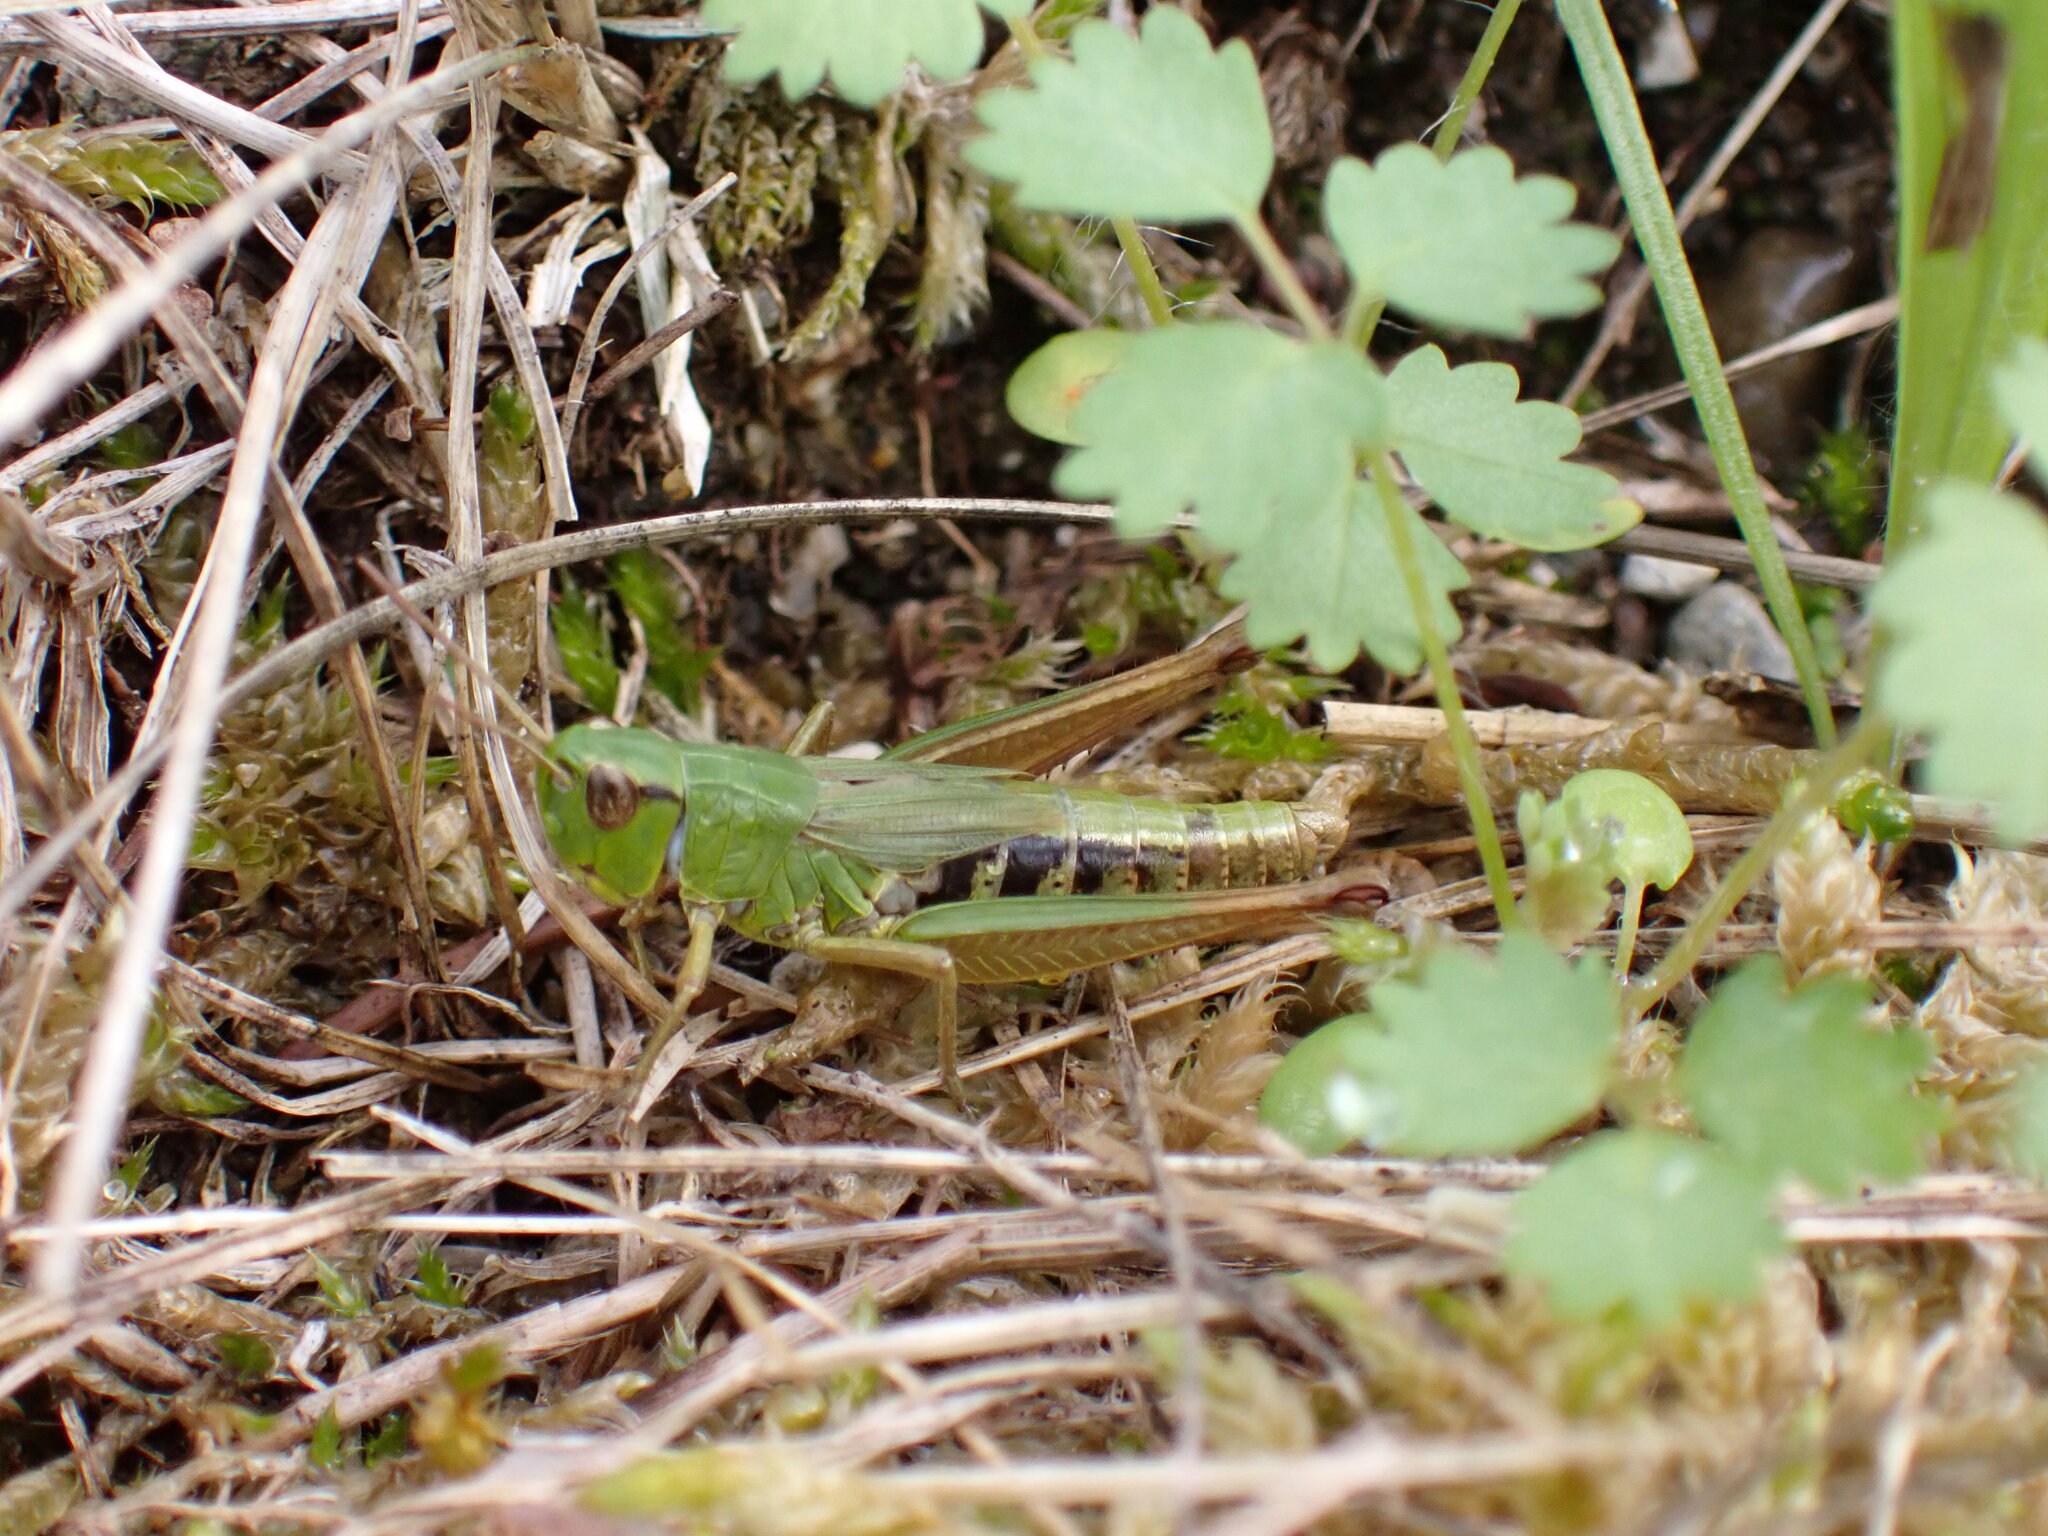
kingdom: Animalia
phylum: Arthropoda
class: Insecta
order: Orthoptera
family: Acrididae
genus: Pseudochorthippus
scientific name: Pseudochorthippus parallelus
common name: Meadow grasshopper
